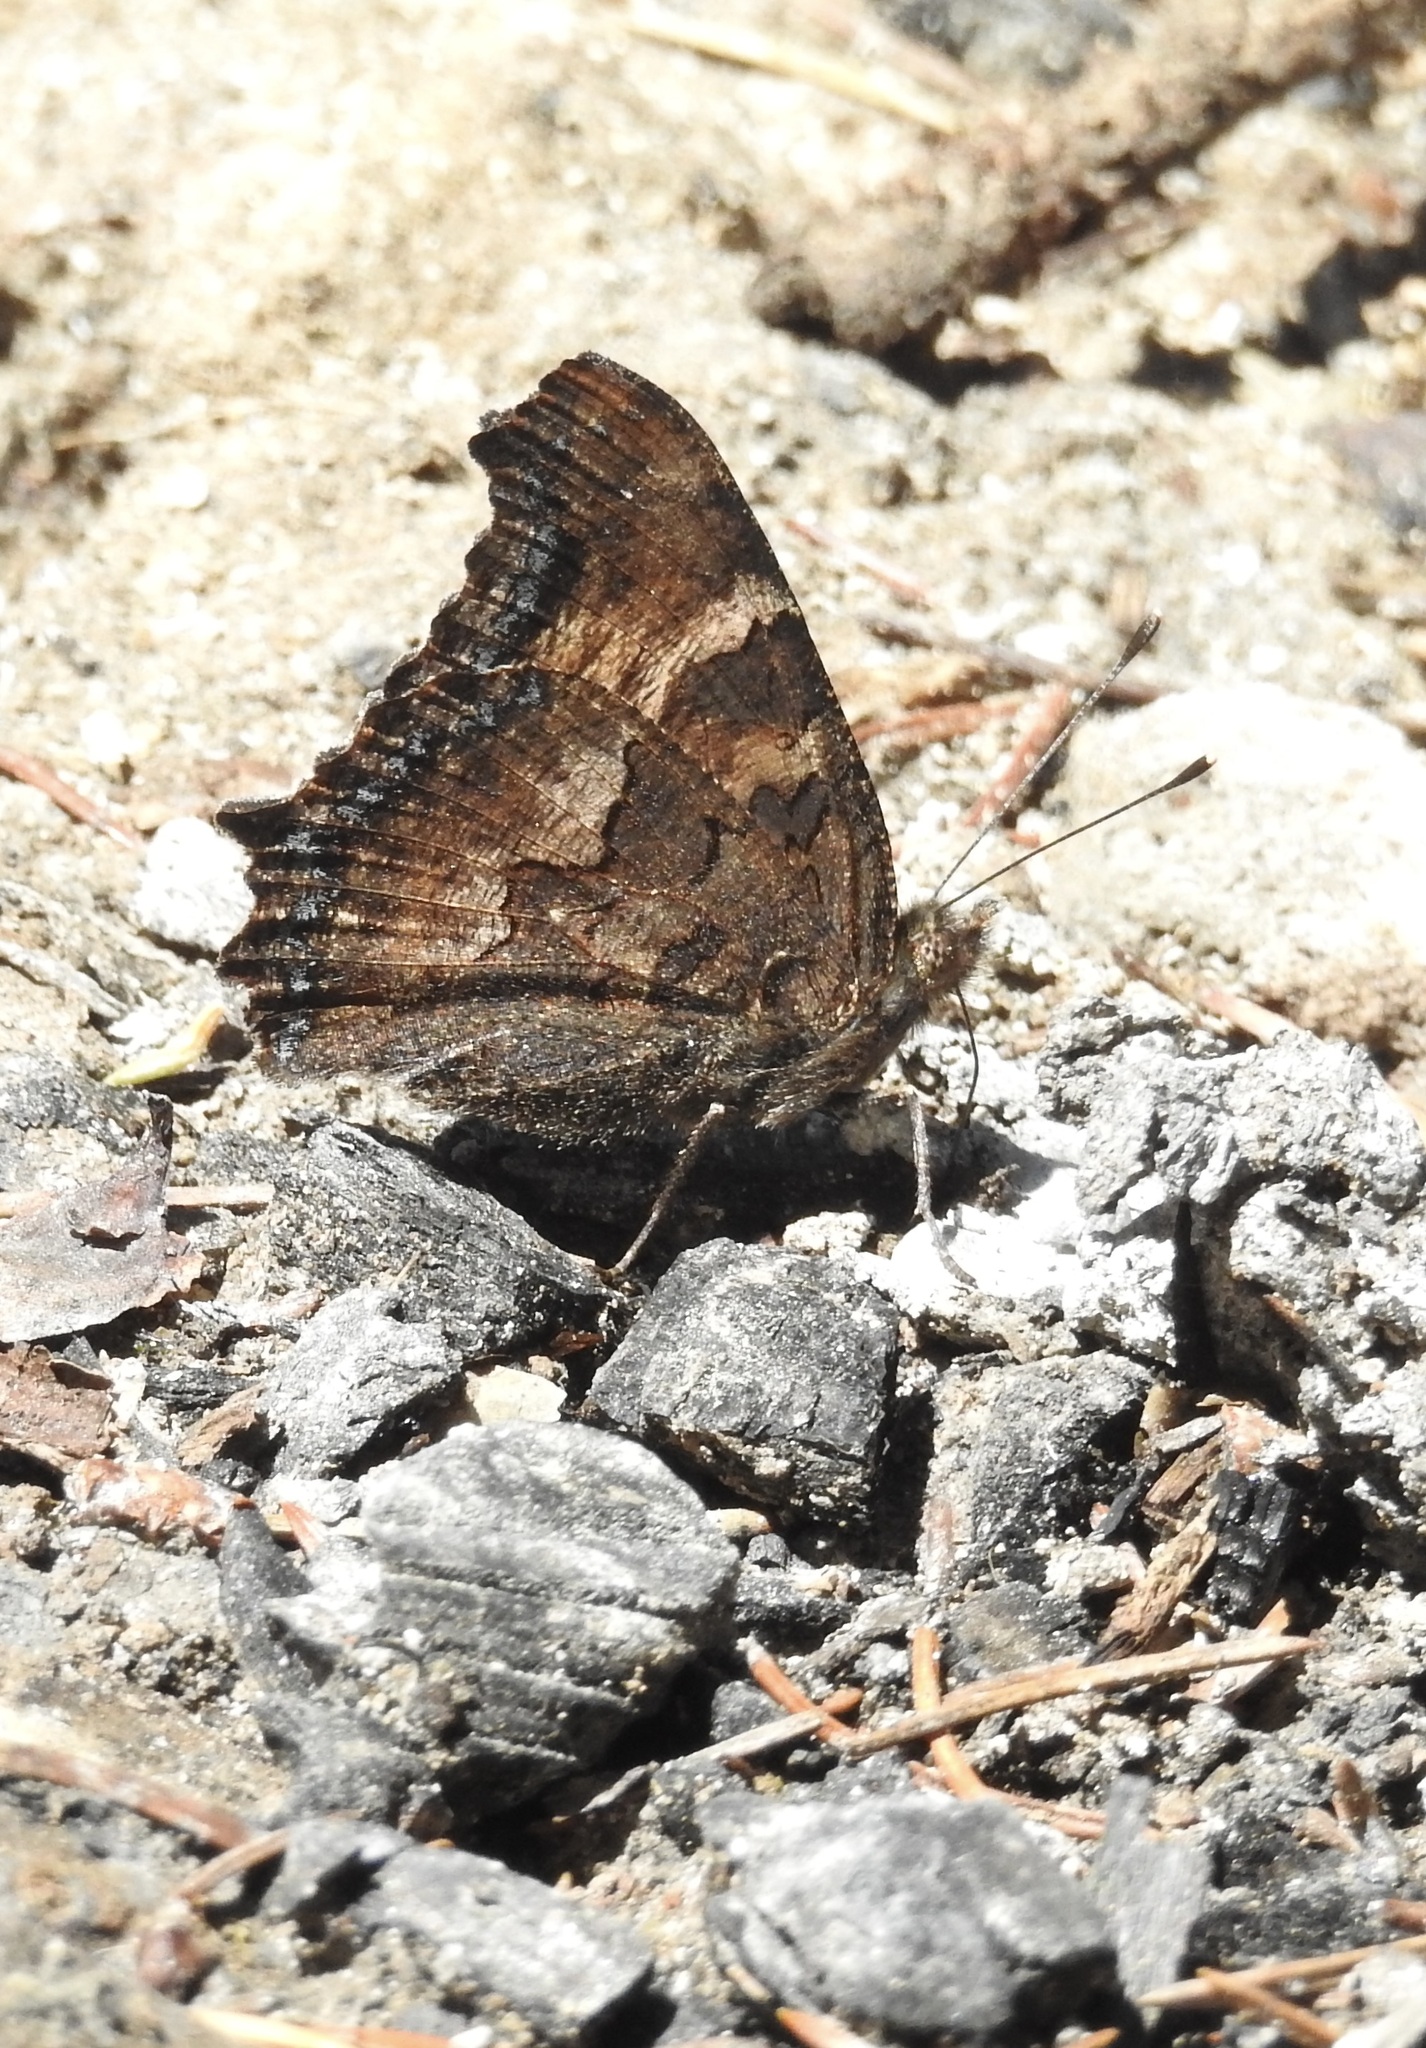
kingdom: Animalia
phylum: Arthropoda
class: Insecta
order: Lepidoptera
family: Nymphalidae
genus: Nymphalis
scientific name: Nymphalis californica
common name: California tortoiseshell
